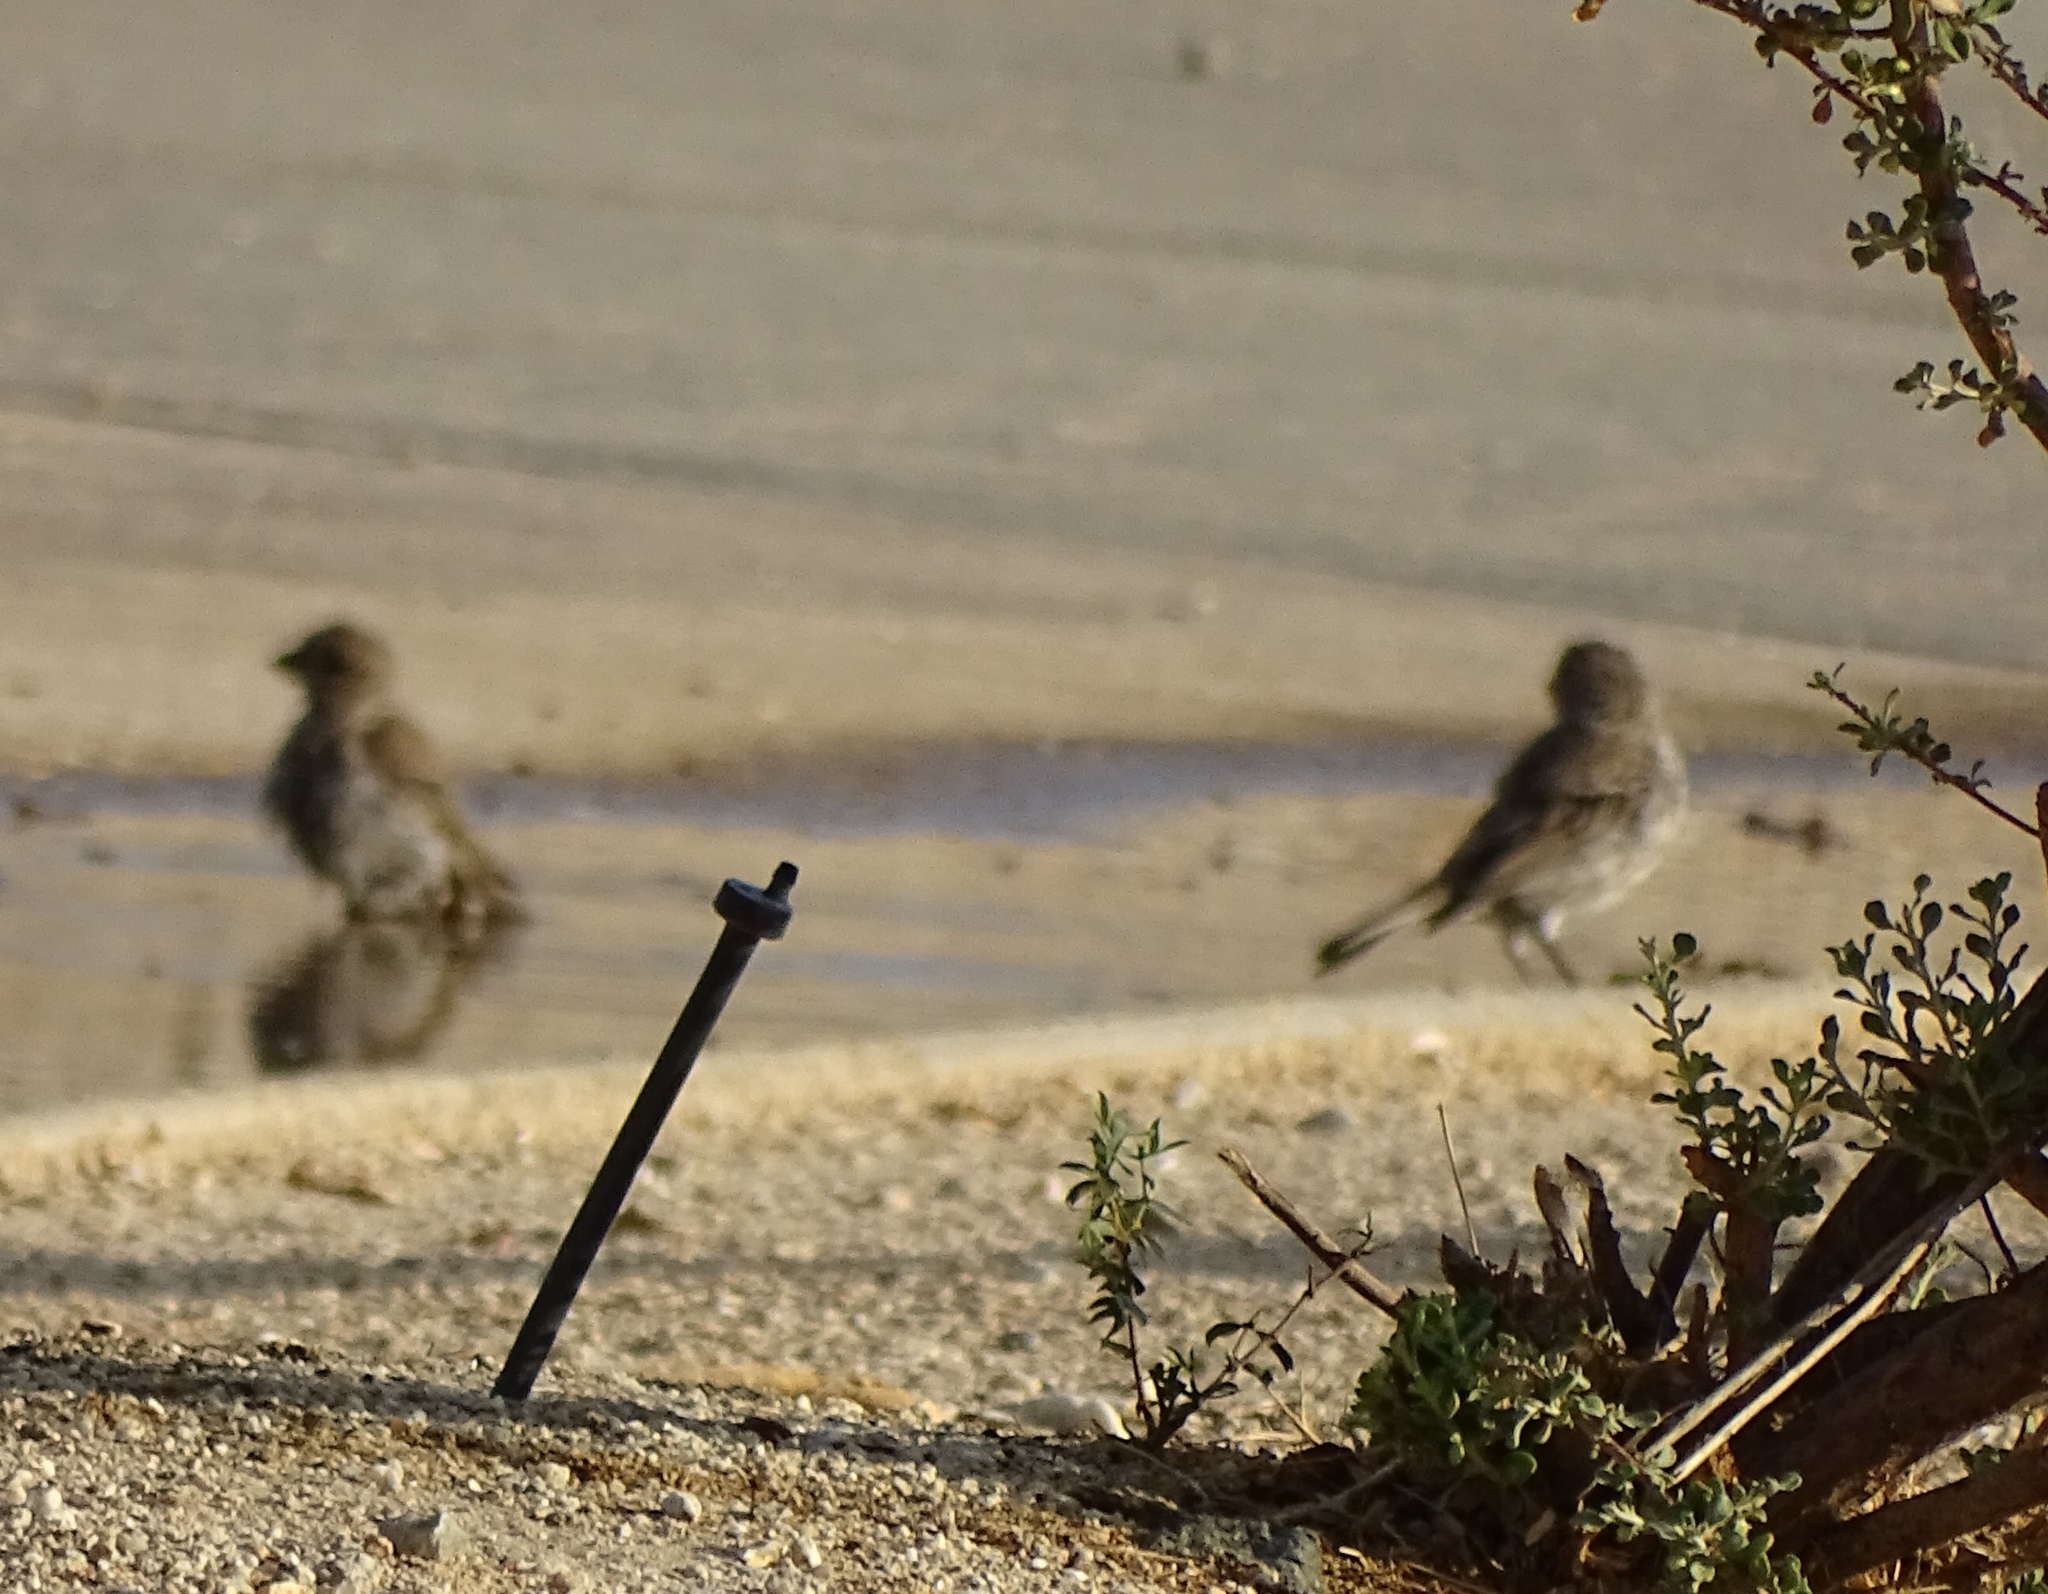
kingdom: Animalia
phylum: Chordata
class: Aves
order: Passeriformes
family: Fringillidae
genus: Haemorhous
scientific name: Haemorhous mexicanus
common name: House finch
